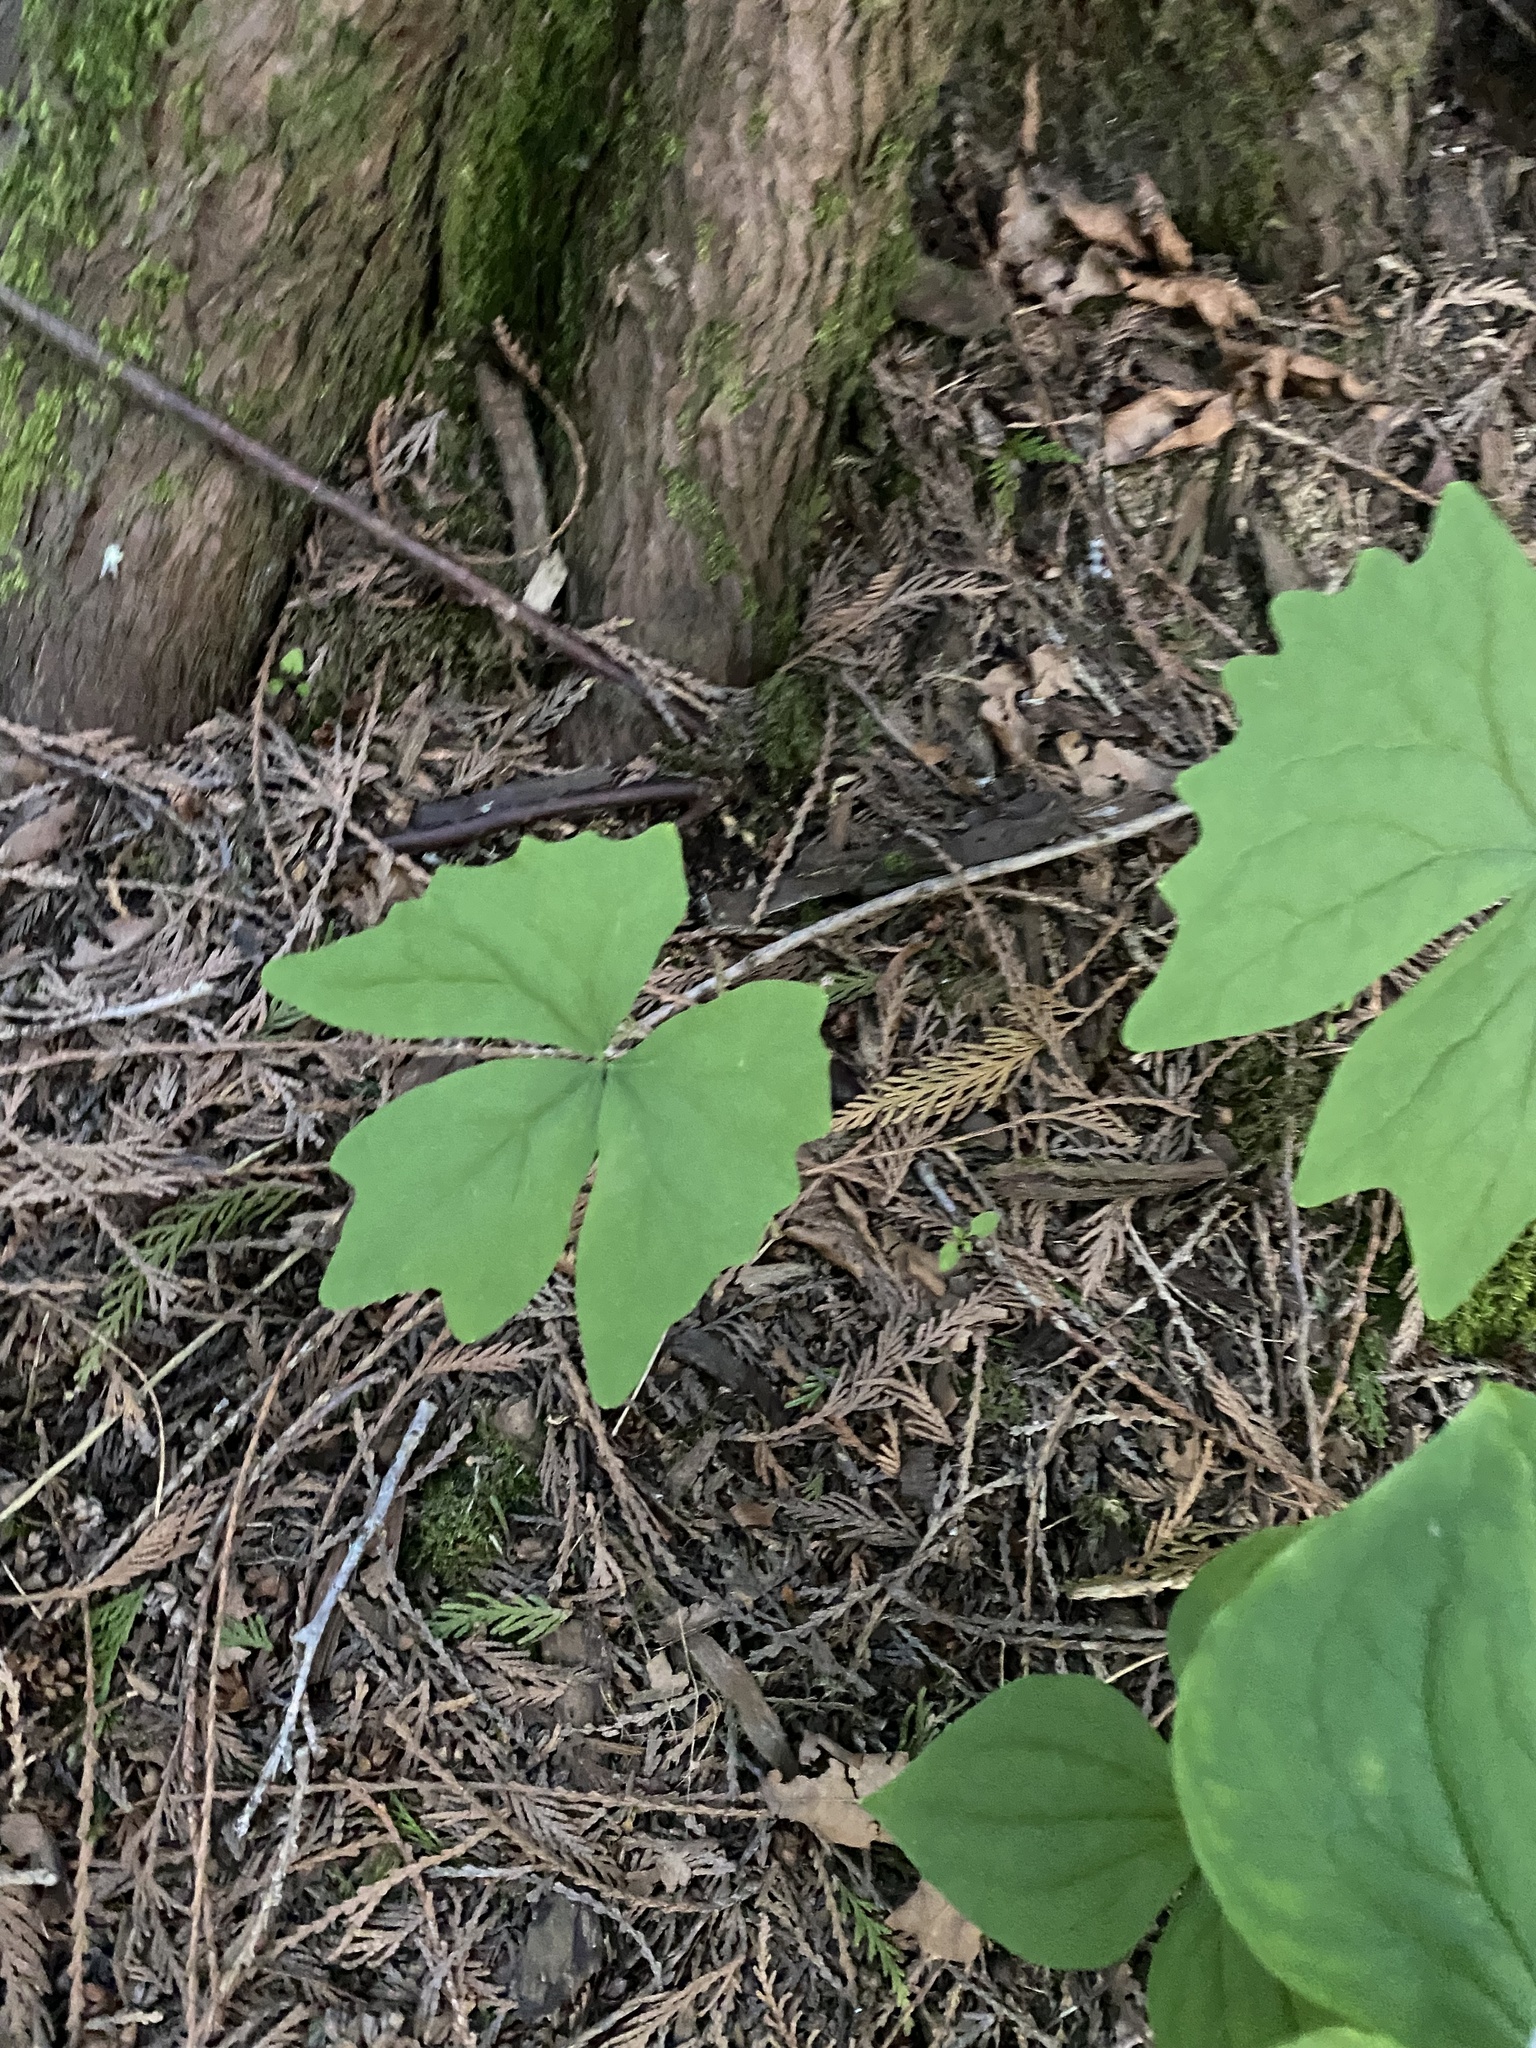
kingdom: Plantae
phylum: Tracheophyta
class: Magnoliopsida
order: Ranunculales
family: Berberidaceae
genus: Achlys
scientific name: Achlys triphylla
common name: Vanilla-leaf
